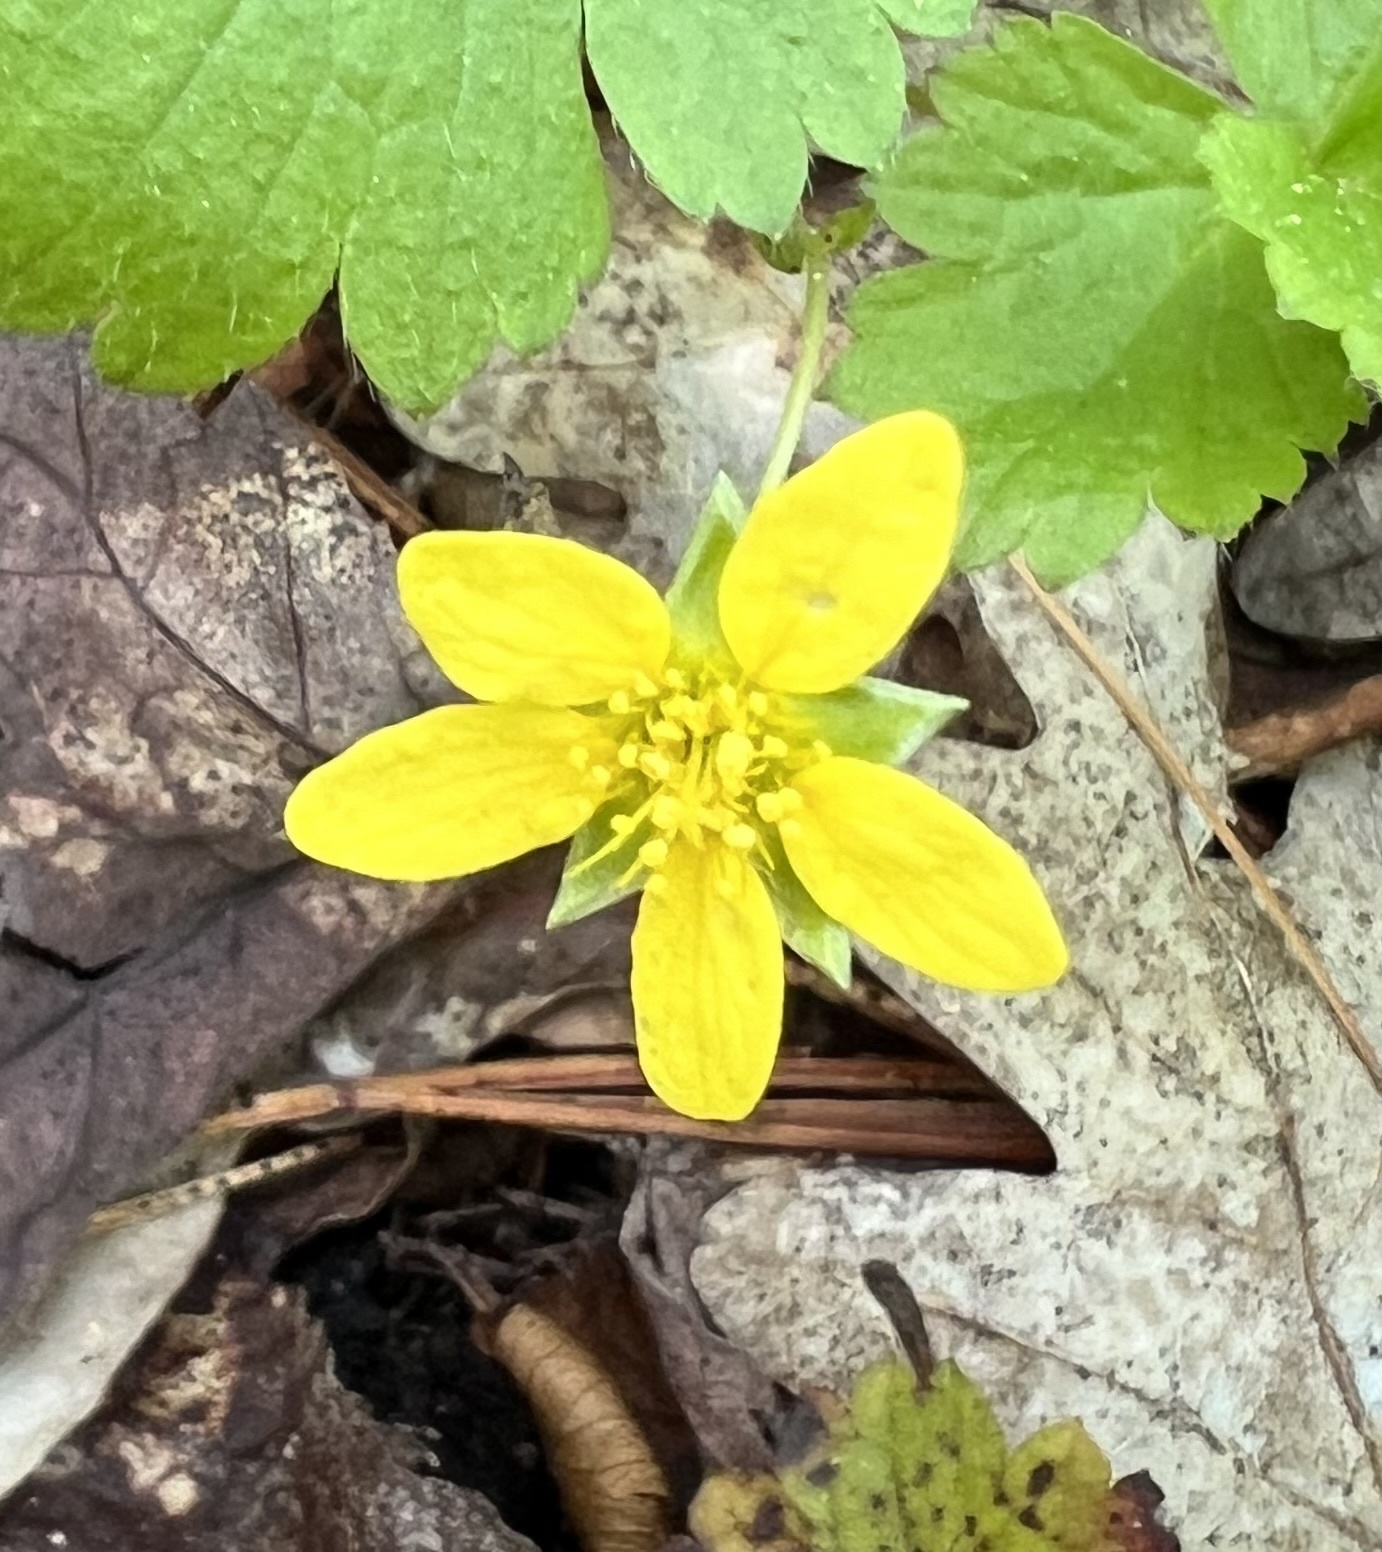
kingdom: Plantae
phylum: Tracheophyta
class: Magnoliopsida
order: Rosales
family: Rosaceae
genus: Geum
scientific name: Geum fragarioides
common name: Appalachian barren strawberry
